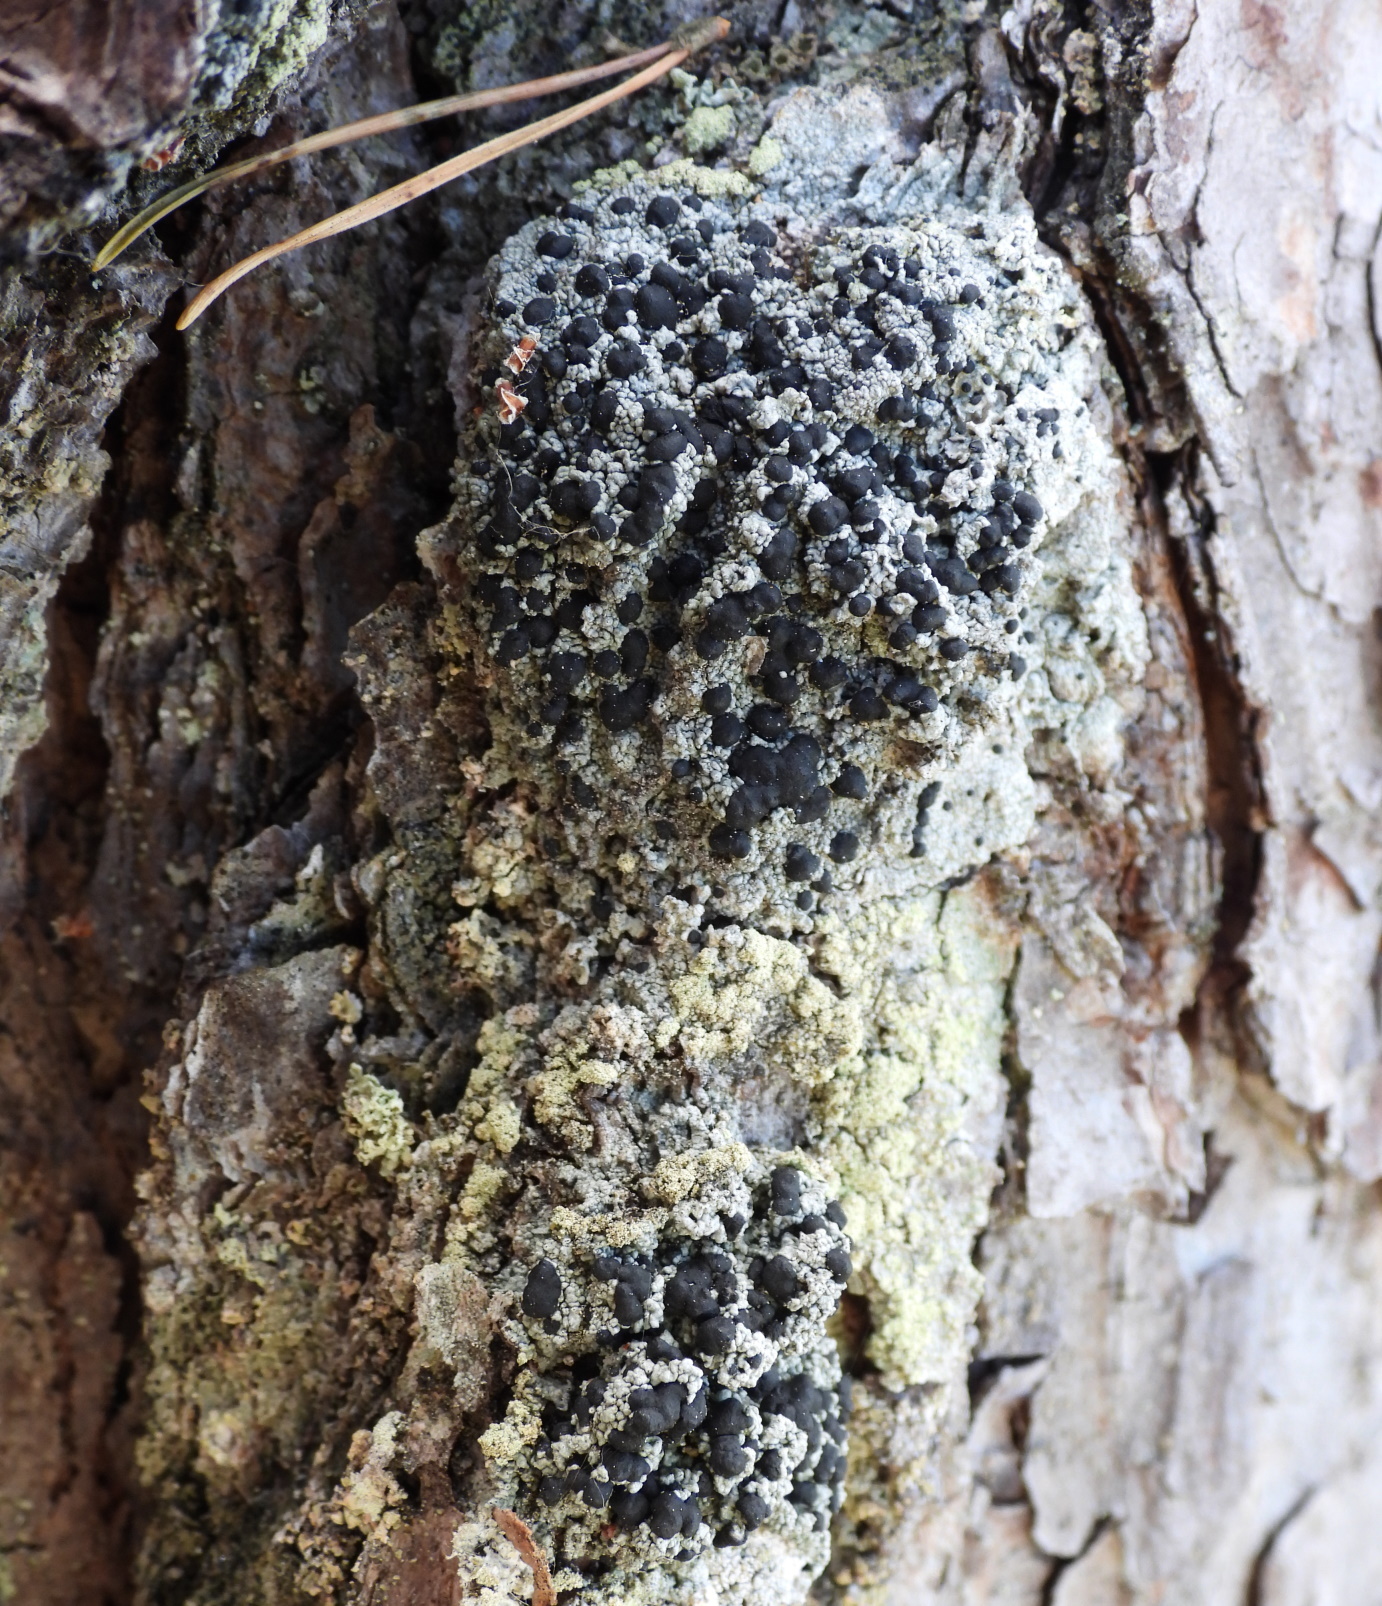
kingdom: Fungi
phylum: Ascomycota
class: Lecanoromycetes
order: Lecanorales
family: Tephromelataceae
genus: Mycoblastus
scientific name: Mycoblastus sanguinarius
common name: Bloody-heart lichen
